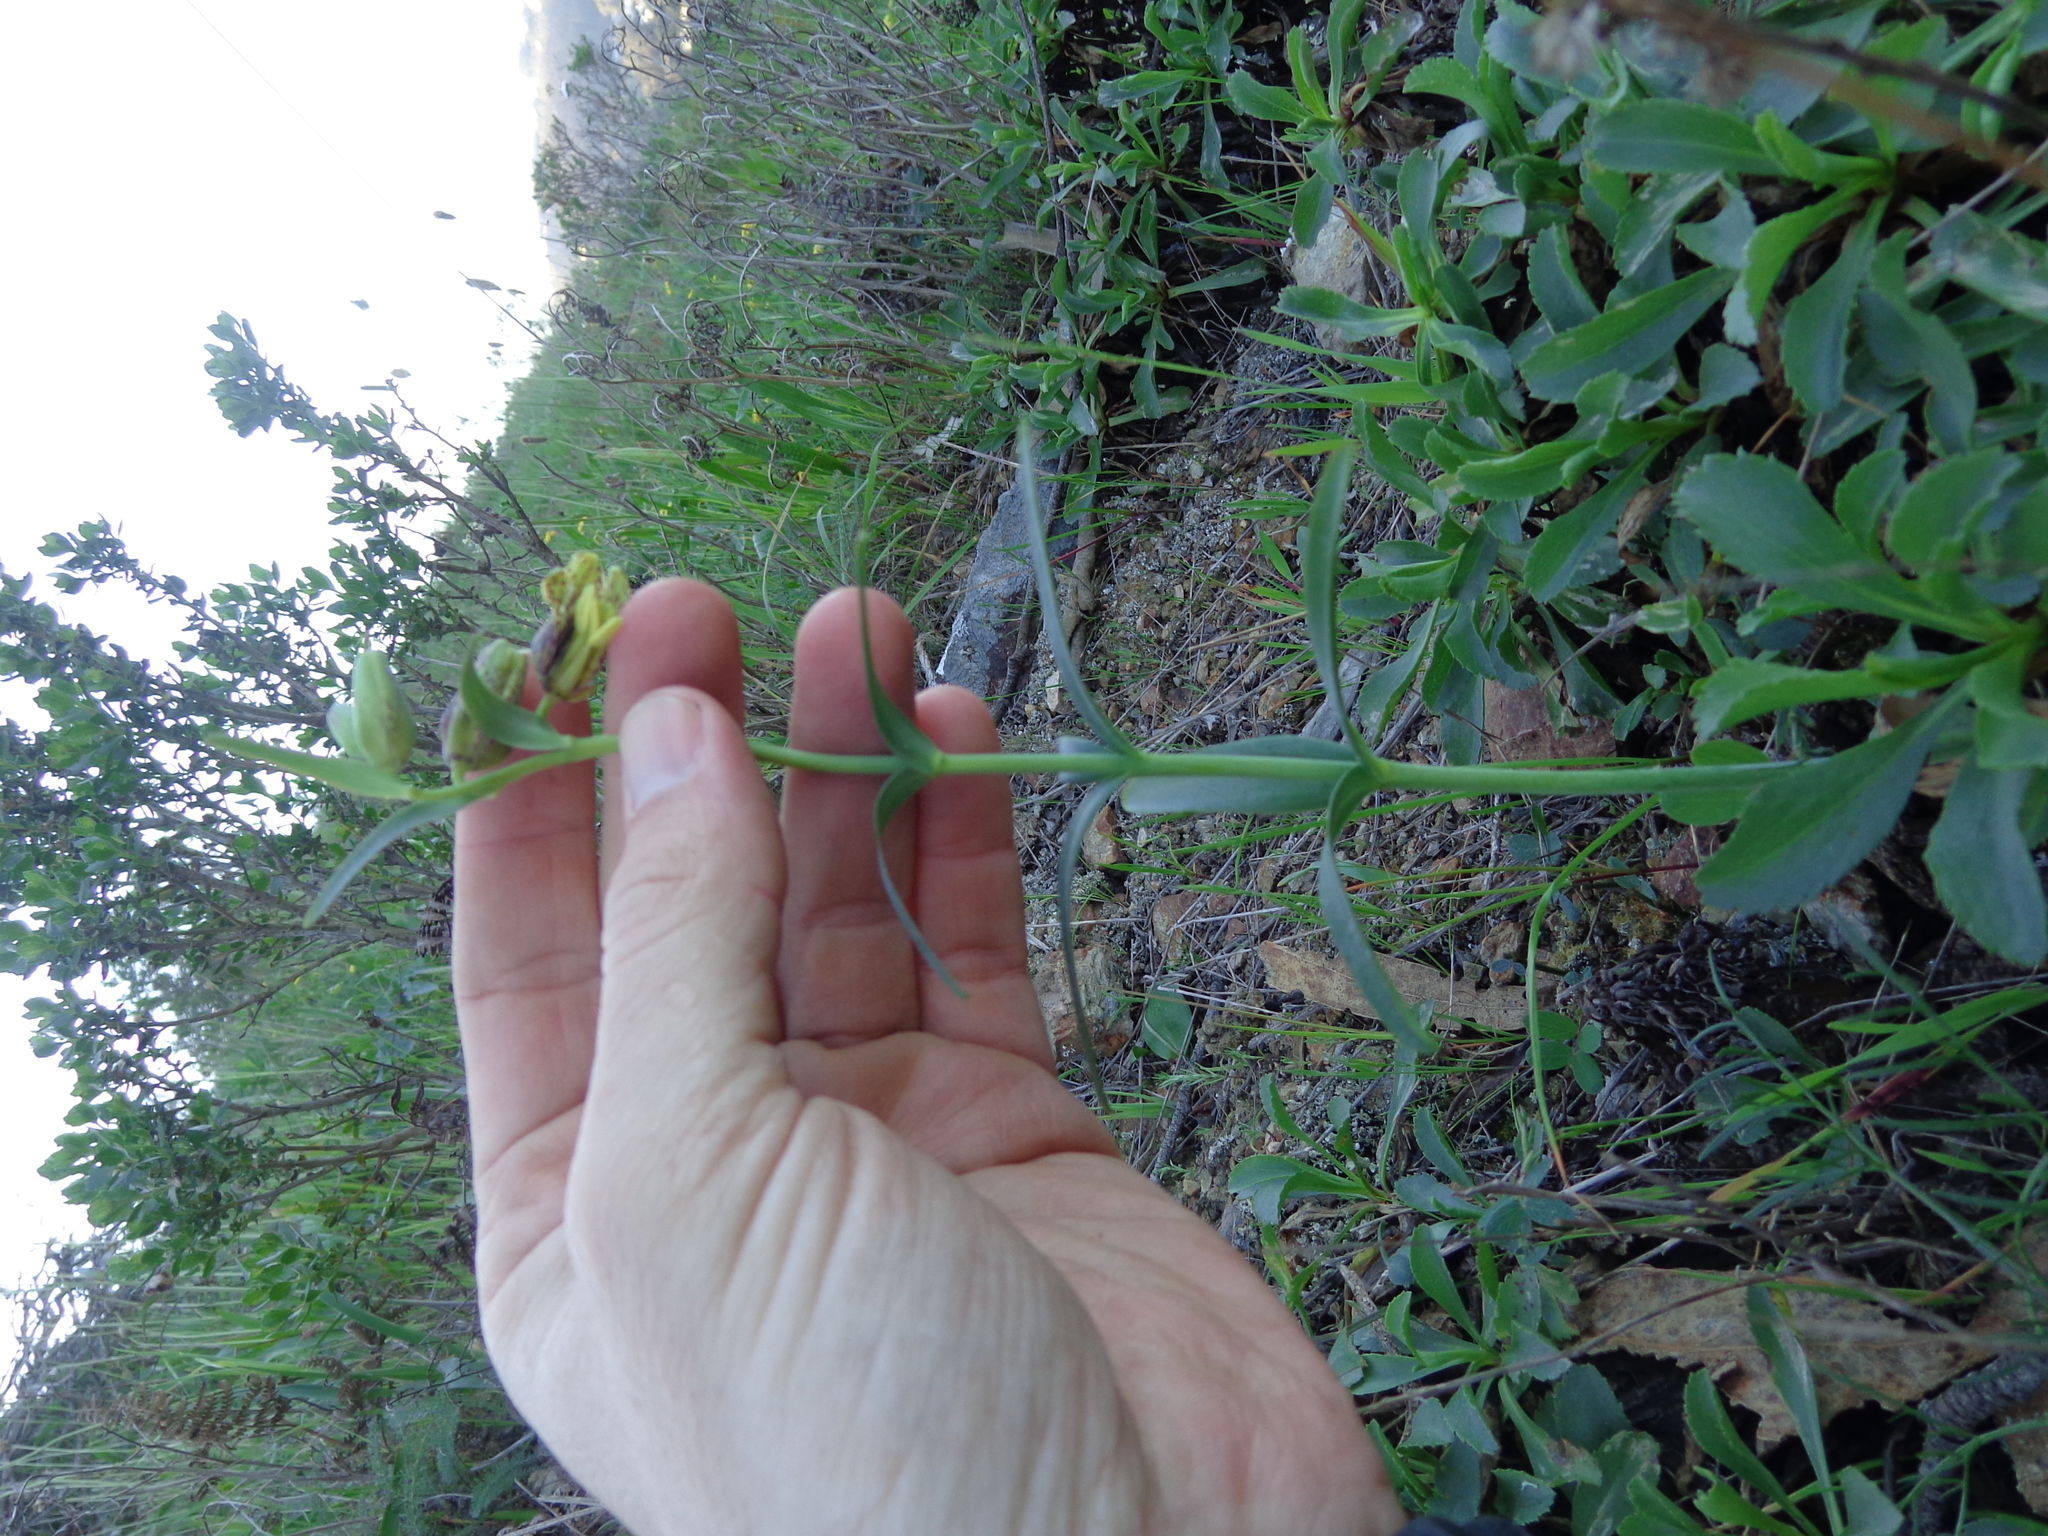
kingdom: Plantae
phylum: Tracheophyta
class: Liliopsida
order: Liliales
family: Liliaceae
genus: Fritillaria
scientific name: Fritillaria affinis
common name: Ojai fritillary
